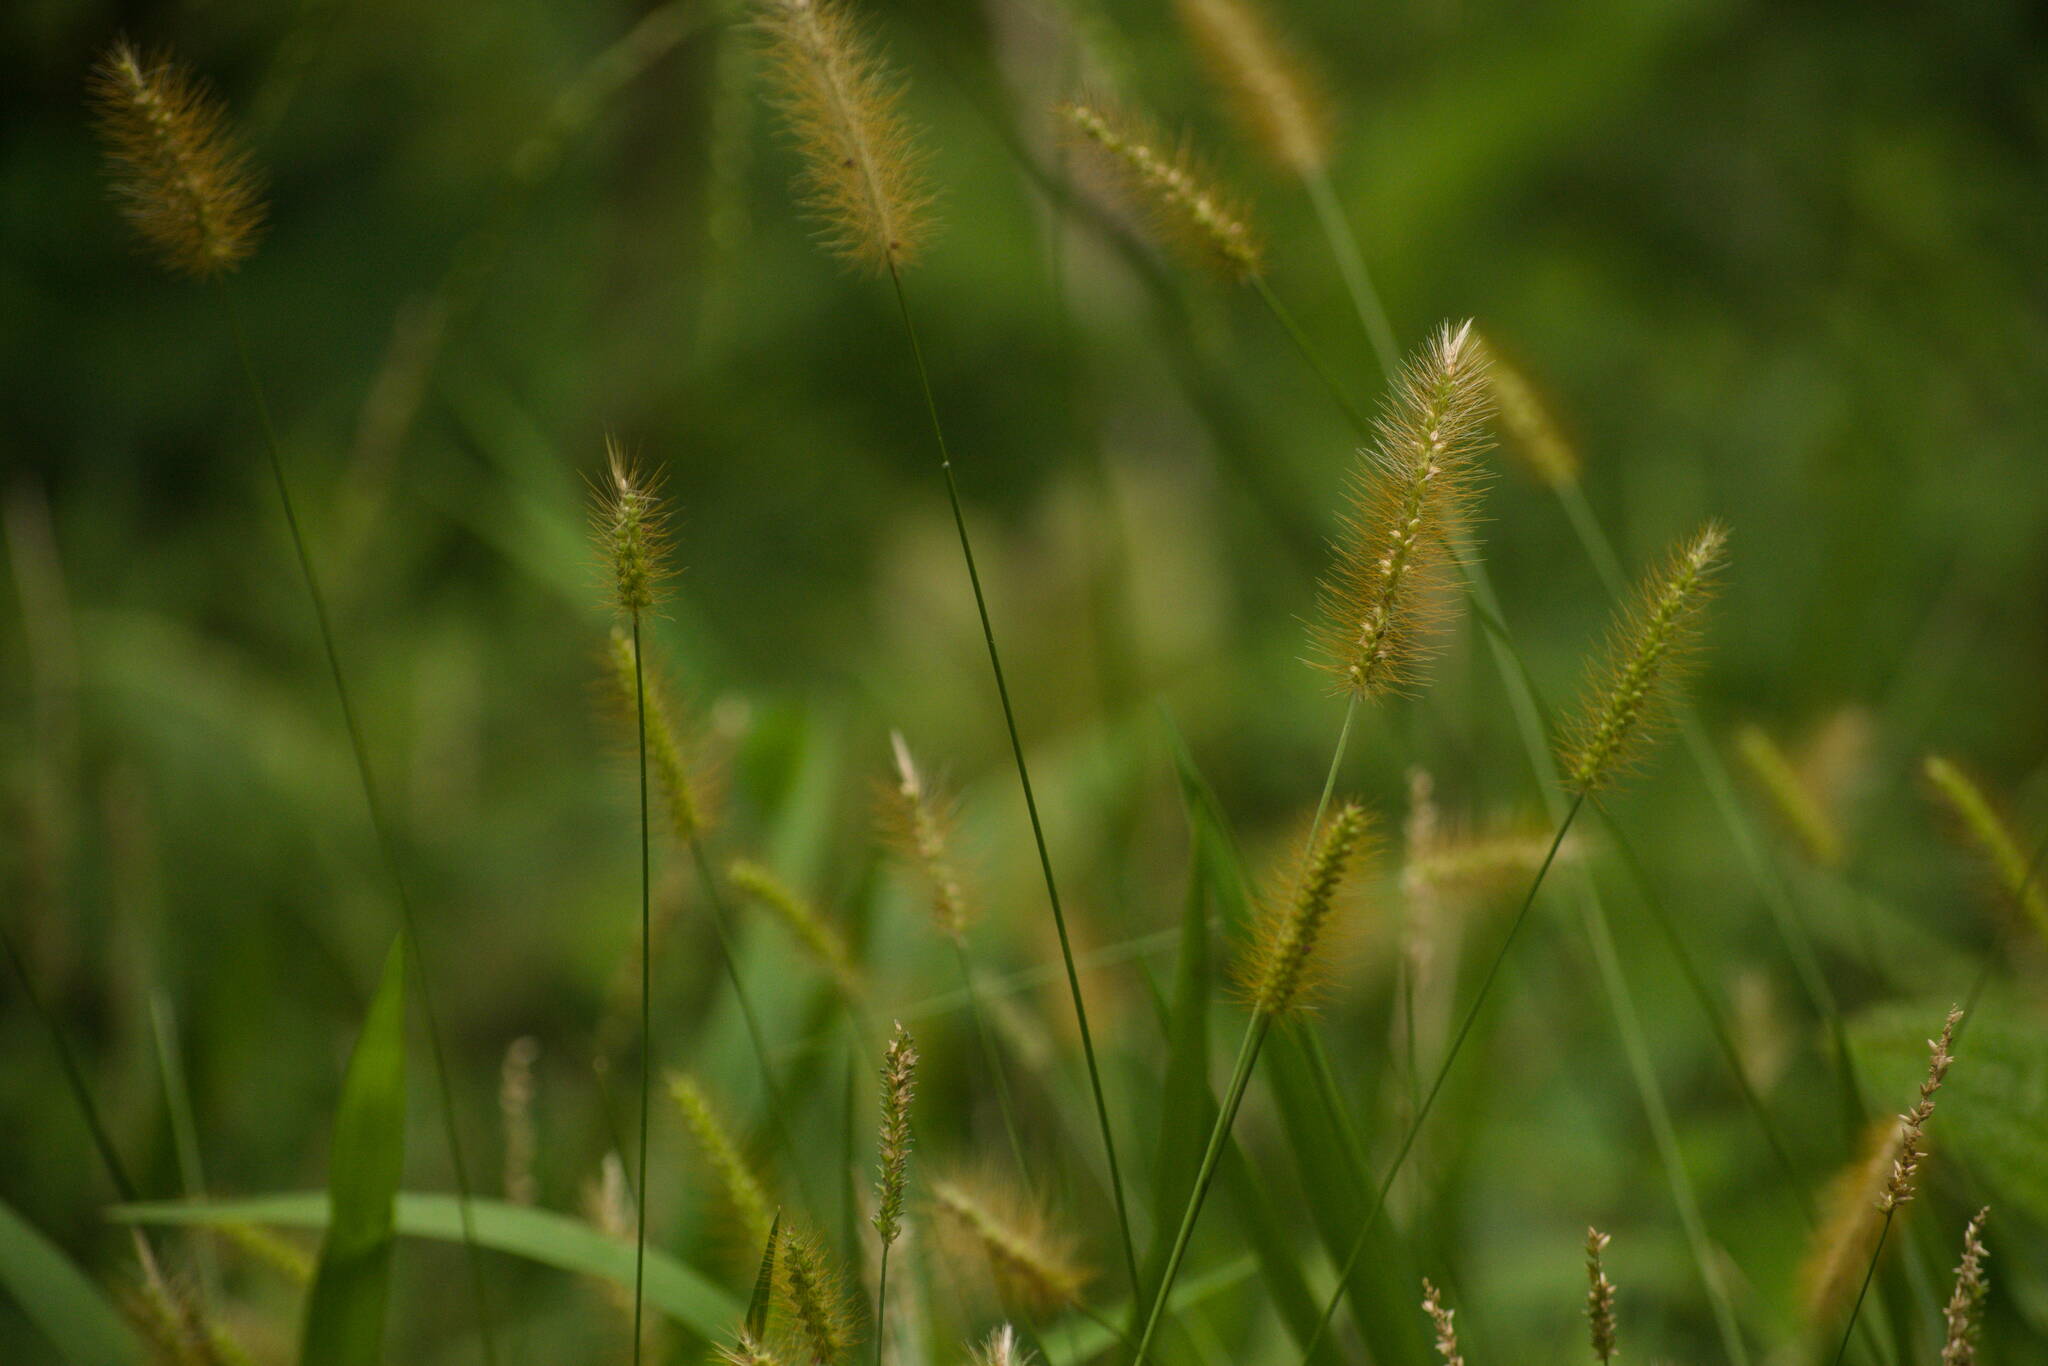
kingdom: Plantae
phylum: Tracheophyta
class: Liliopsida
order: Poales
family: Poaceae
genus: Setaria
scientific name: Setaria parviflora
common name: Knotroot bristle-grass
